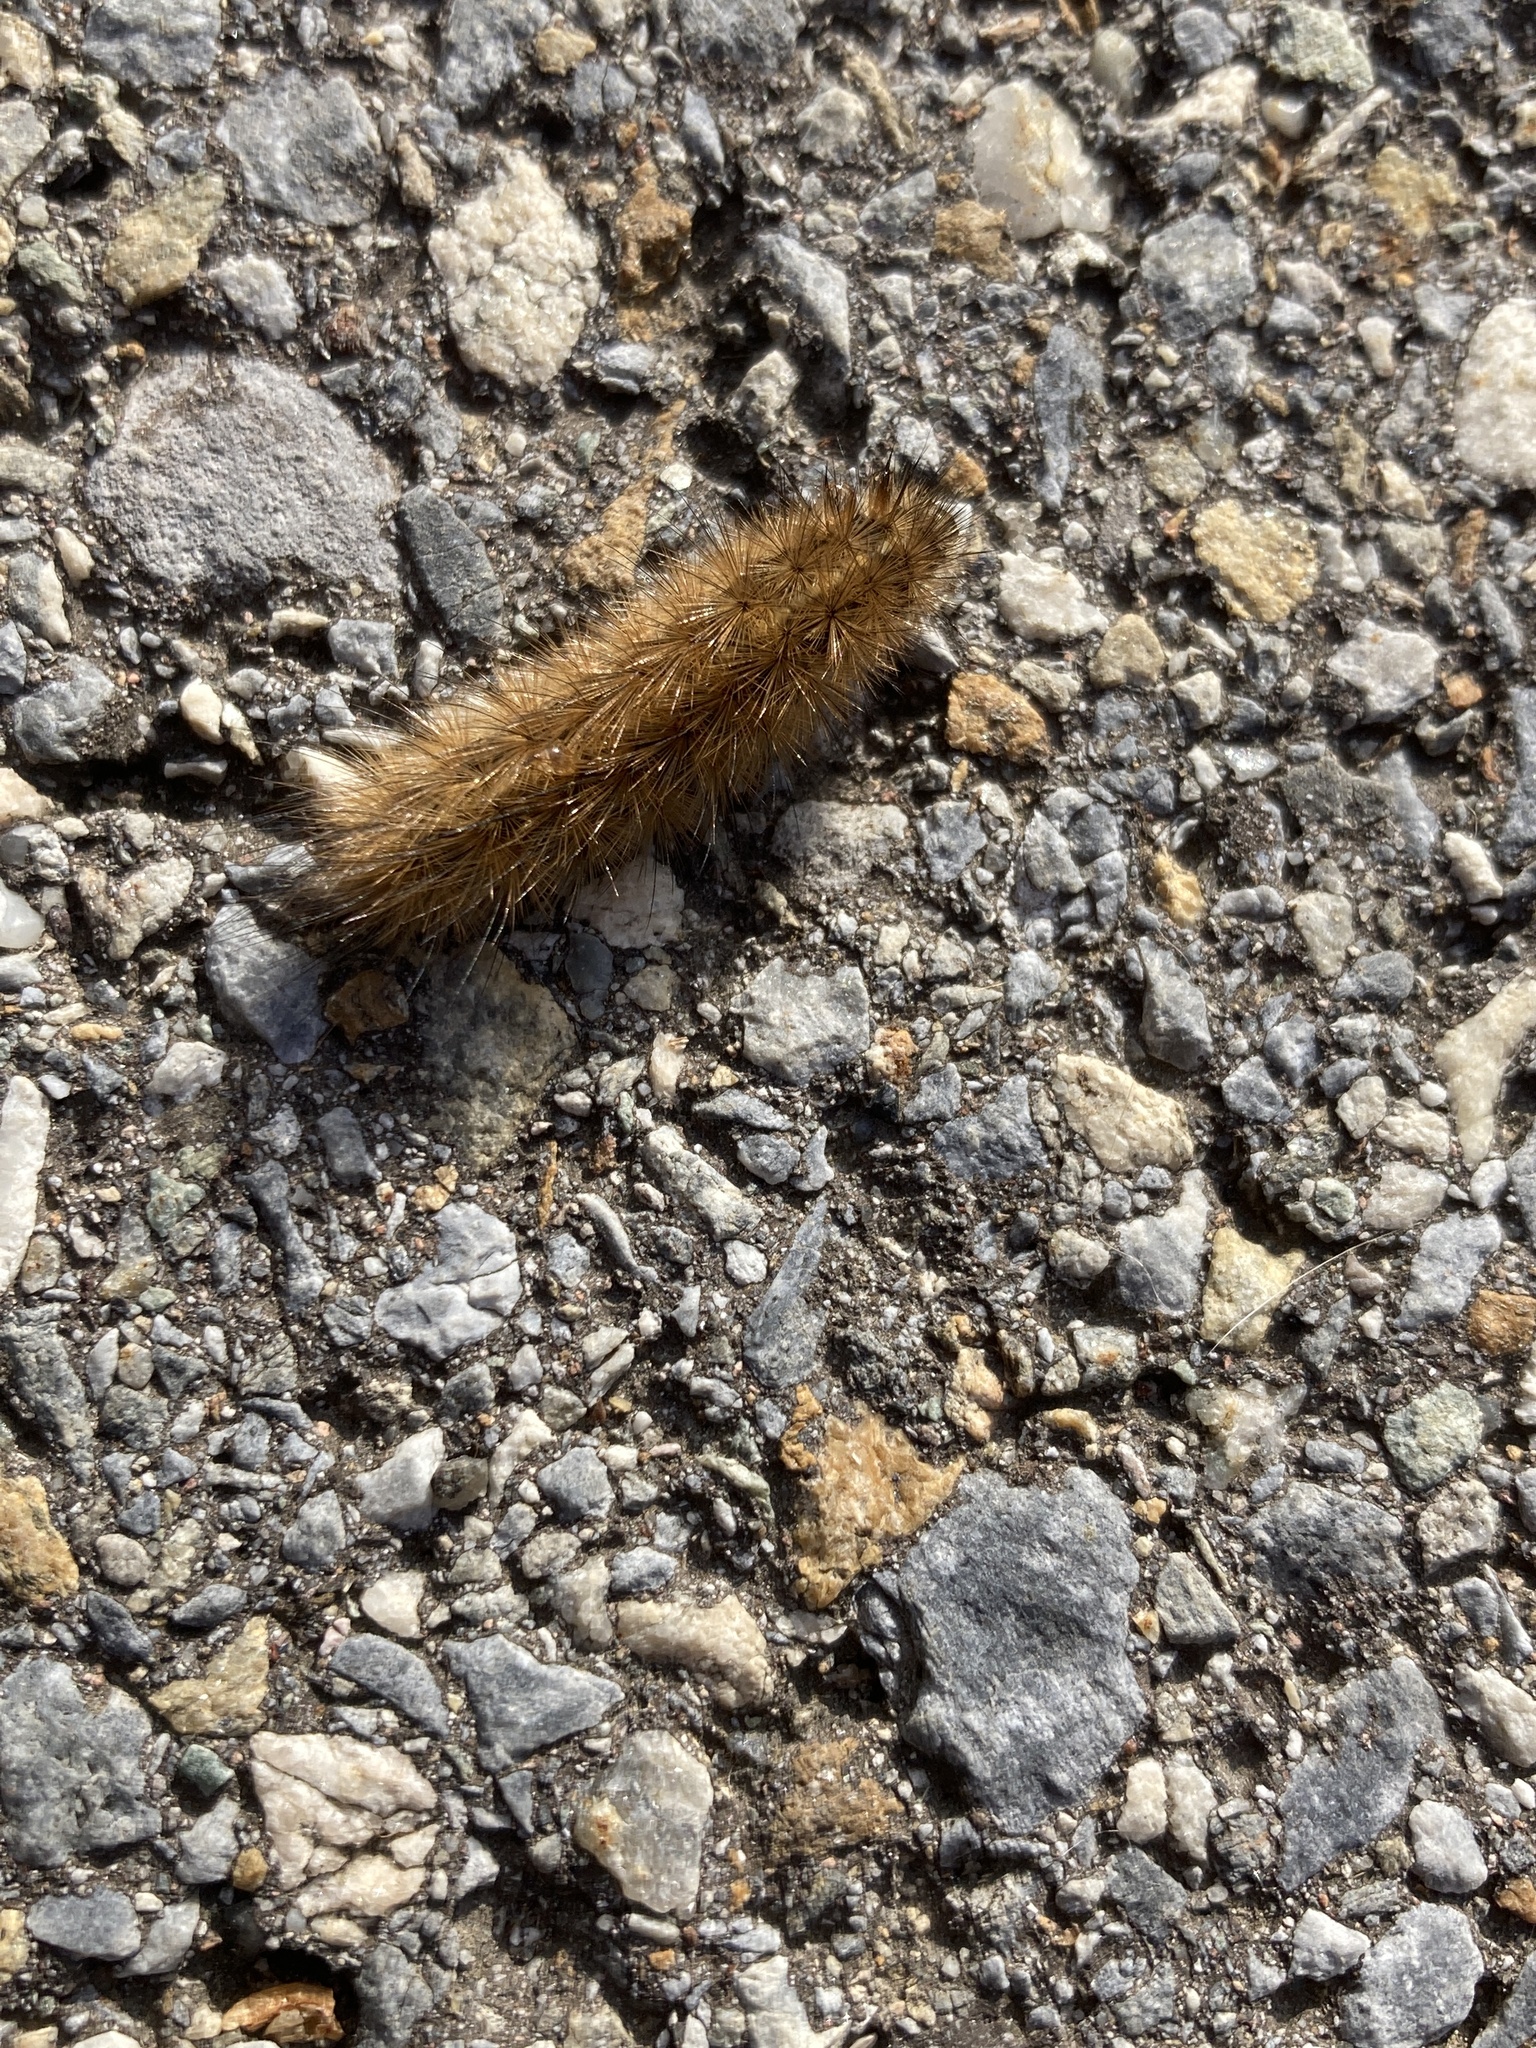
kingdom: Animalia
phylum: Arthropoda
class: Insecta
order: Lepidoptera
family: Erebidae
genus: Phragmatobia
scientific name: Phragmatobia fuliginosa
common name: Ruby tiger
